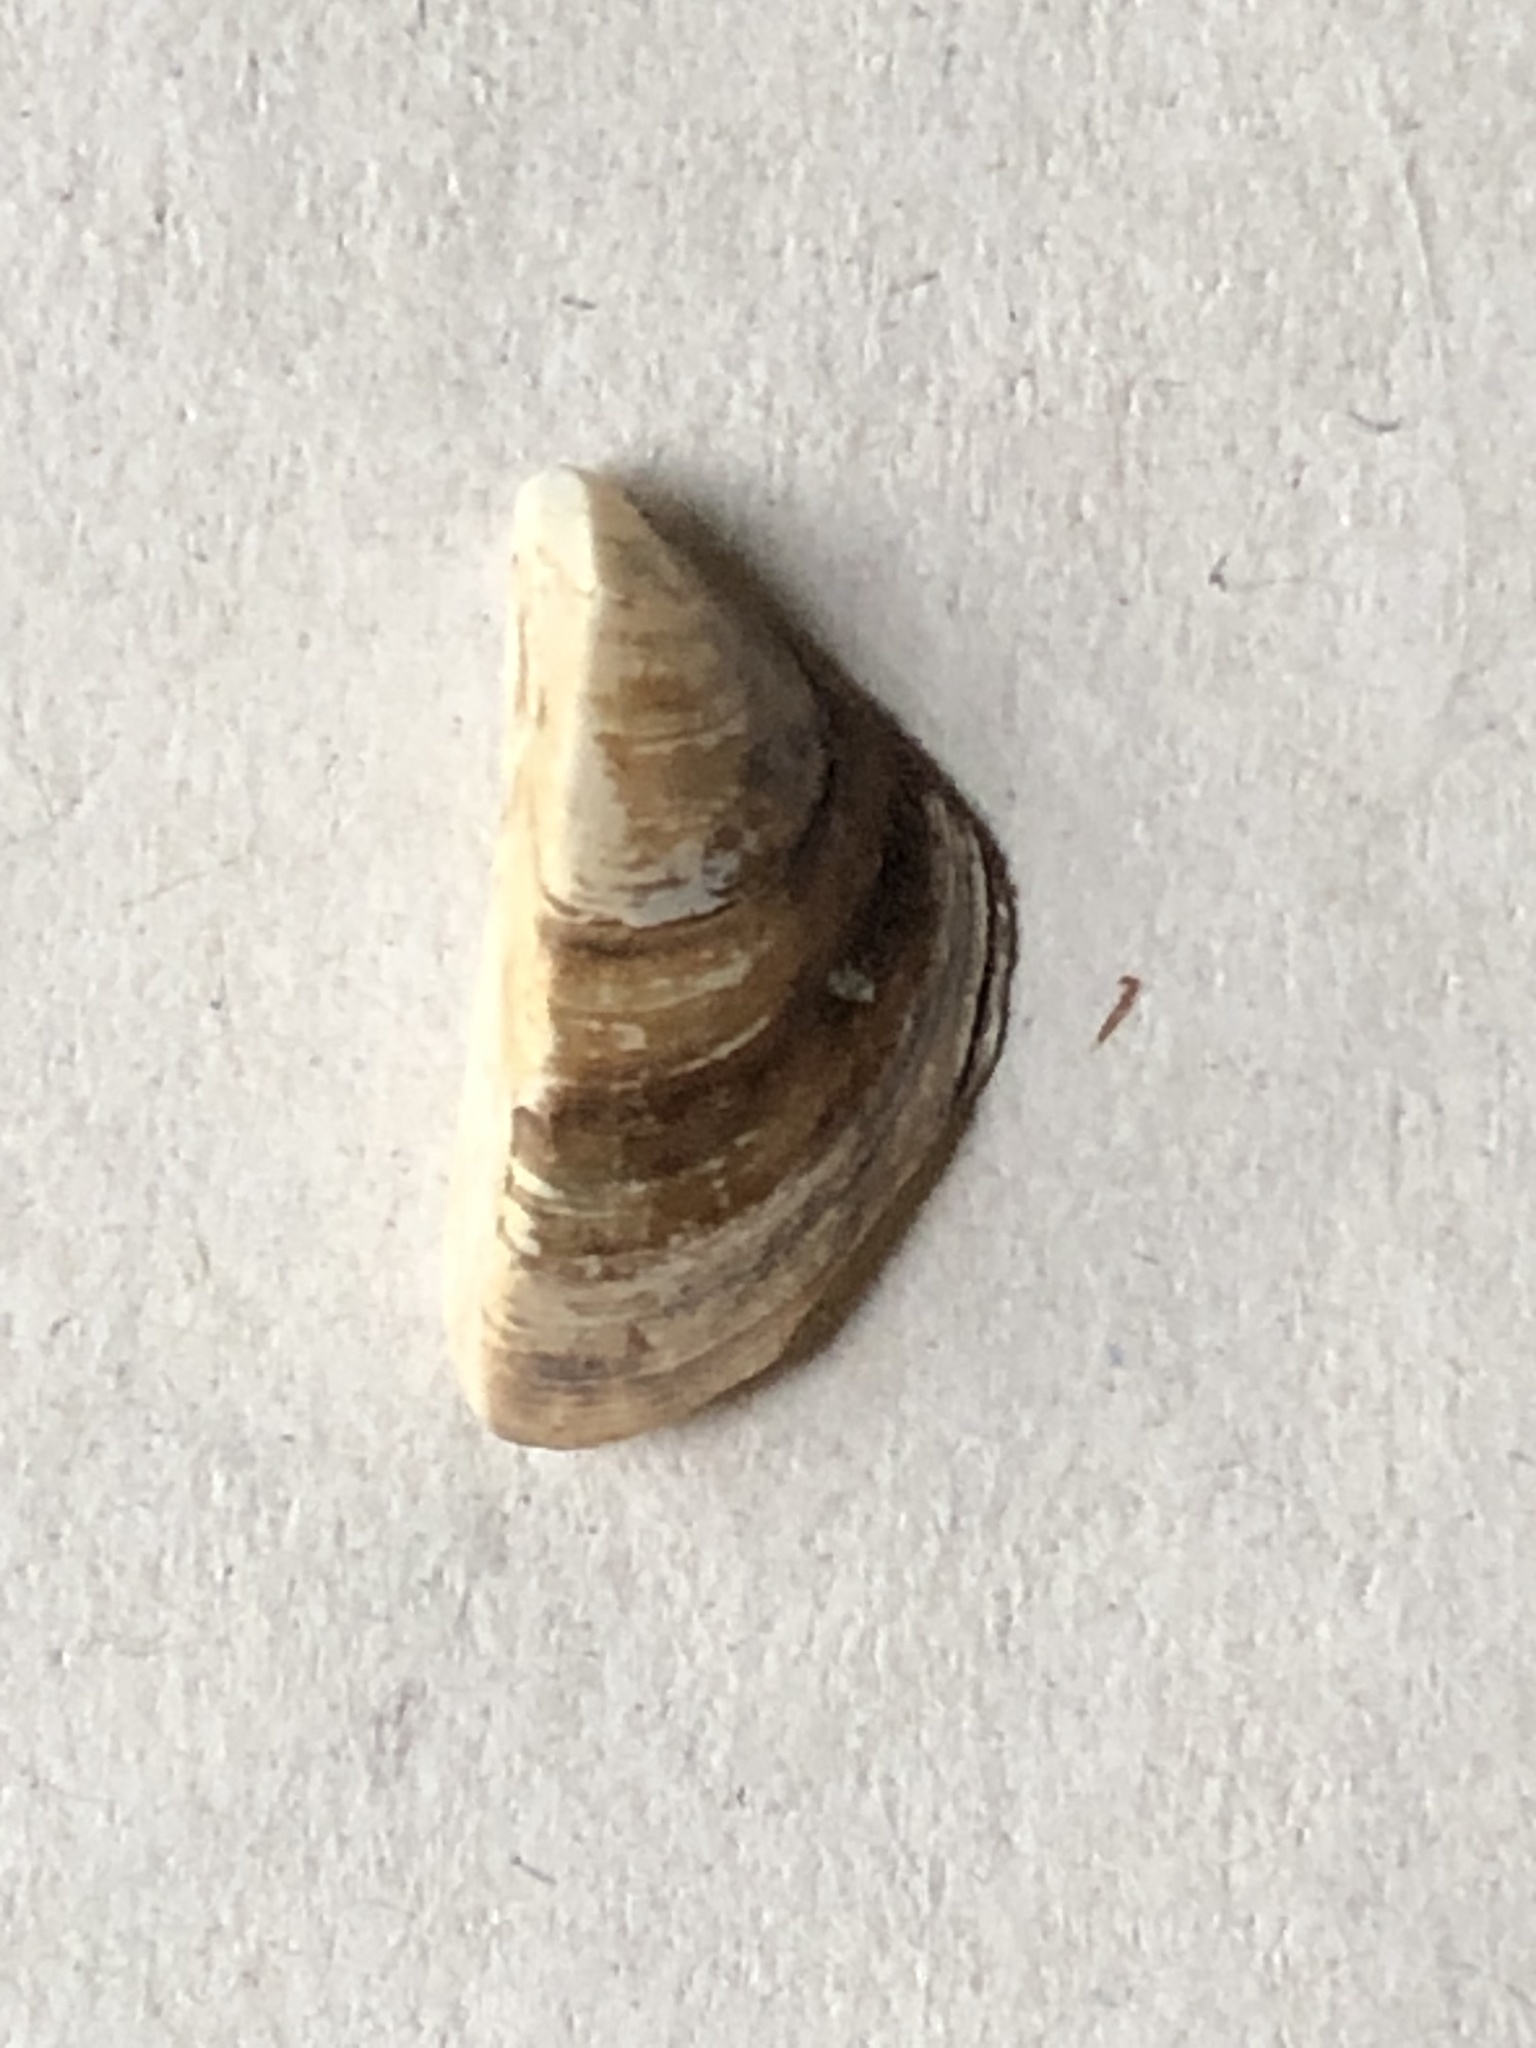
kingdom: Animalia
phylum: Mollusca
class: Bivalvia
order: Myida
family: Dreissenidae
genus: Dreissena
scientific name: Dreissena polymorpha
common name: Zebra mussel
